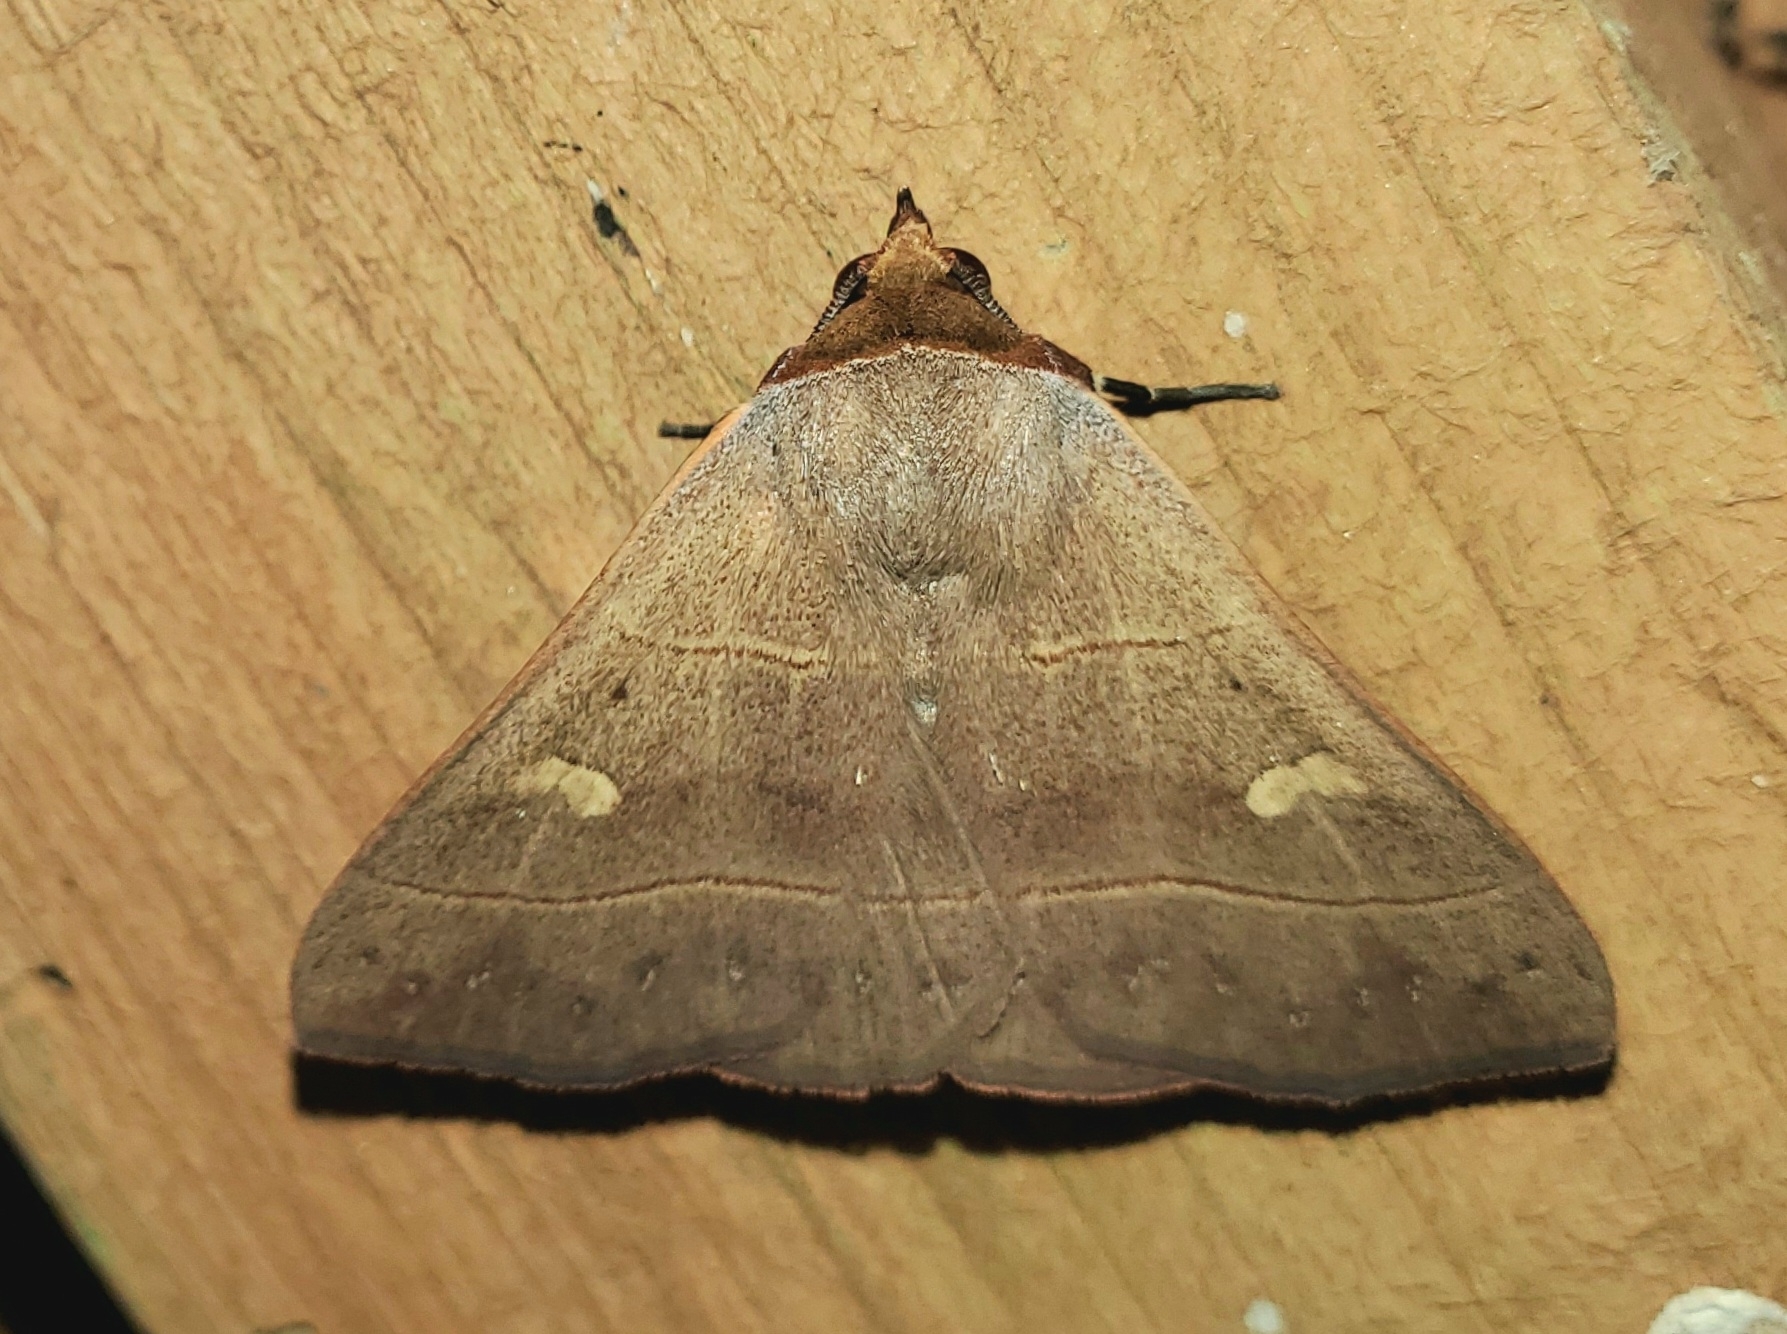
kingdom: Animalia
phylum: Arthropoda
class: Insecta
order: Lepidoptera
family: Erebidae
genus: Panopoda
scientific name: Panopoda rufimargo
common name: Red-lined panopoda moth
